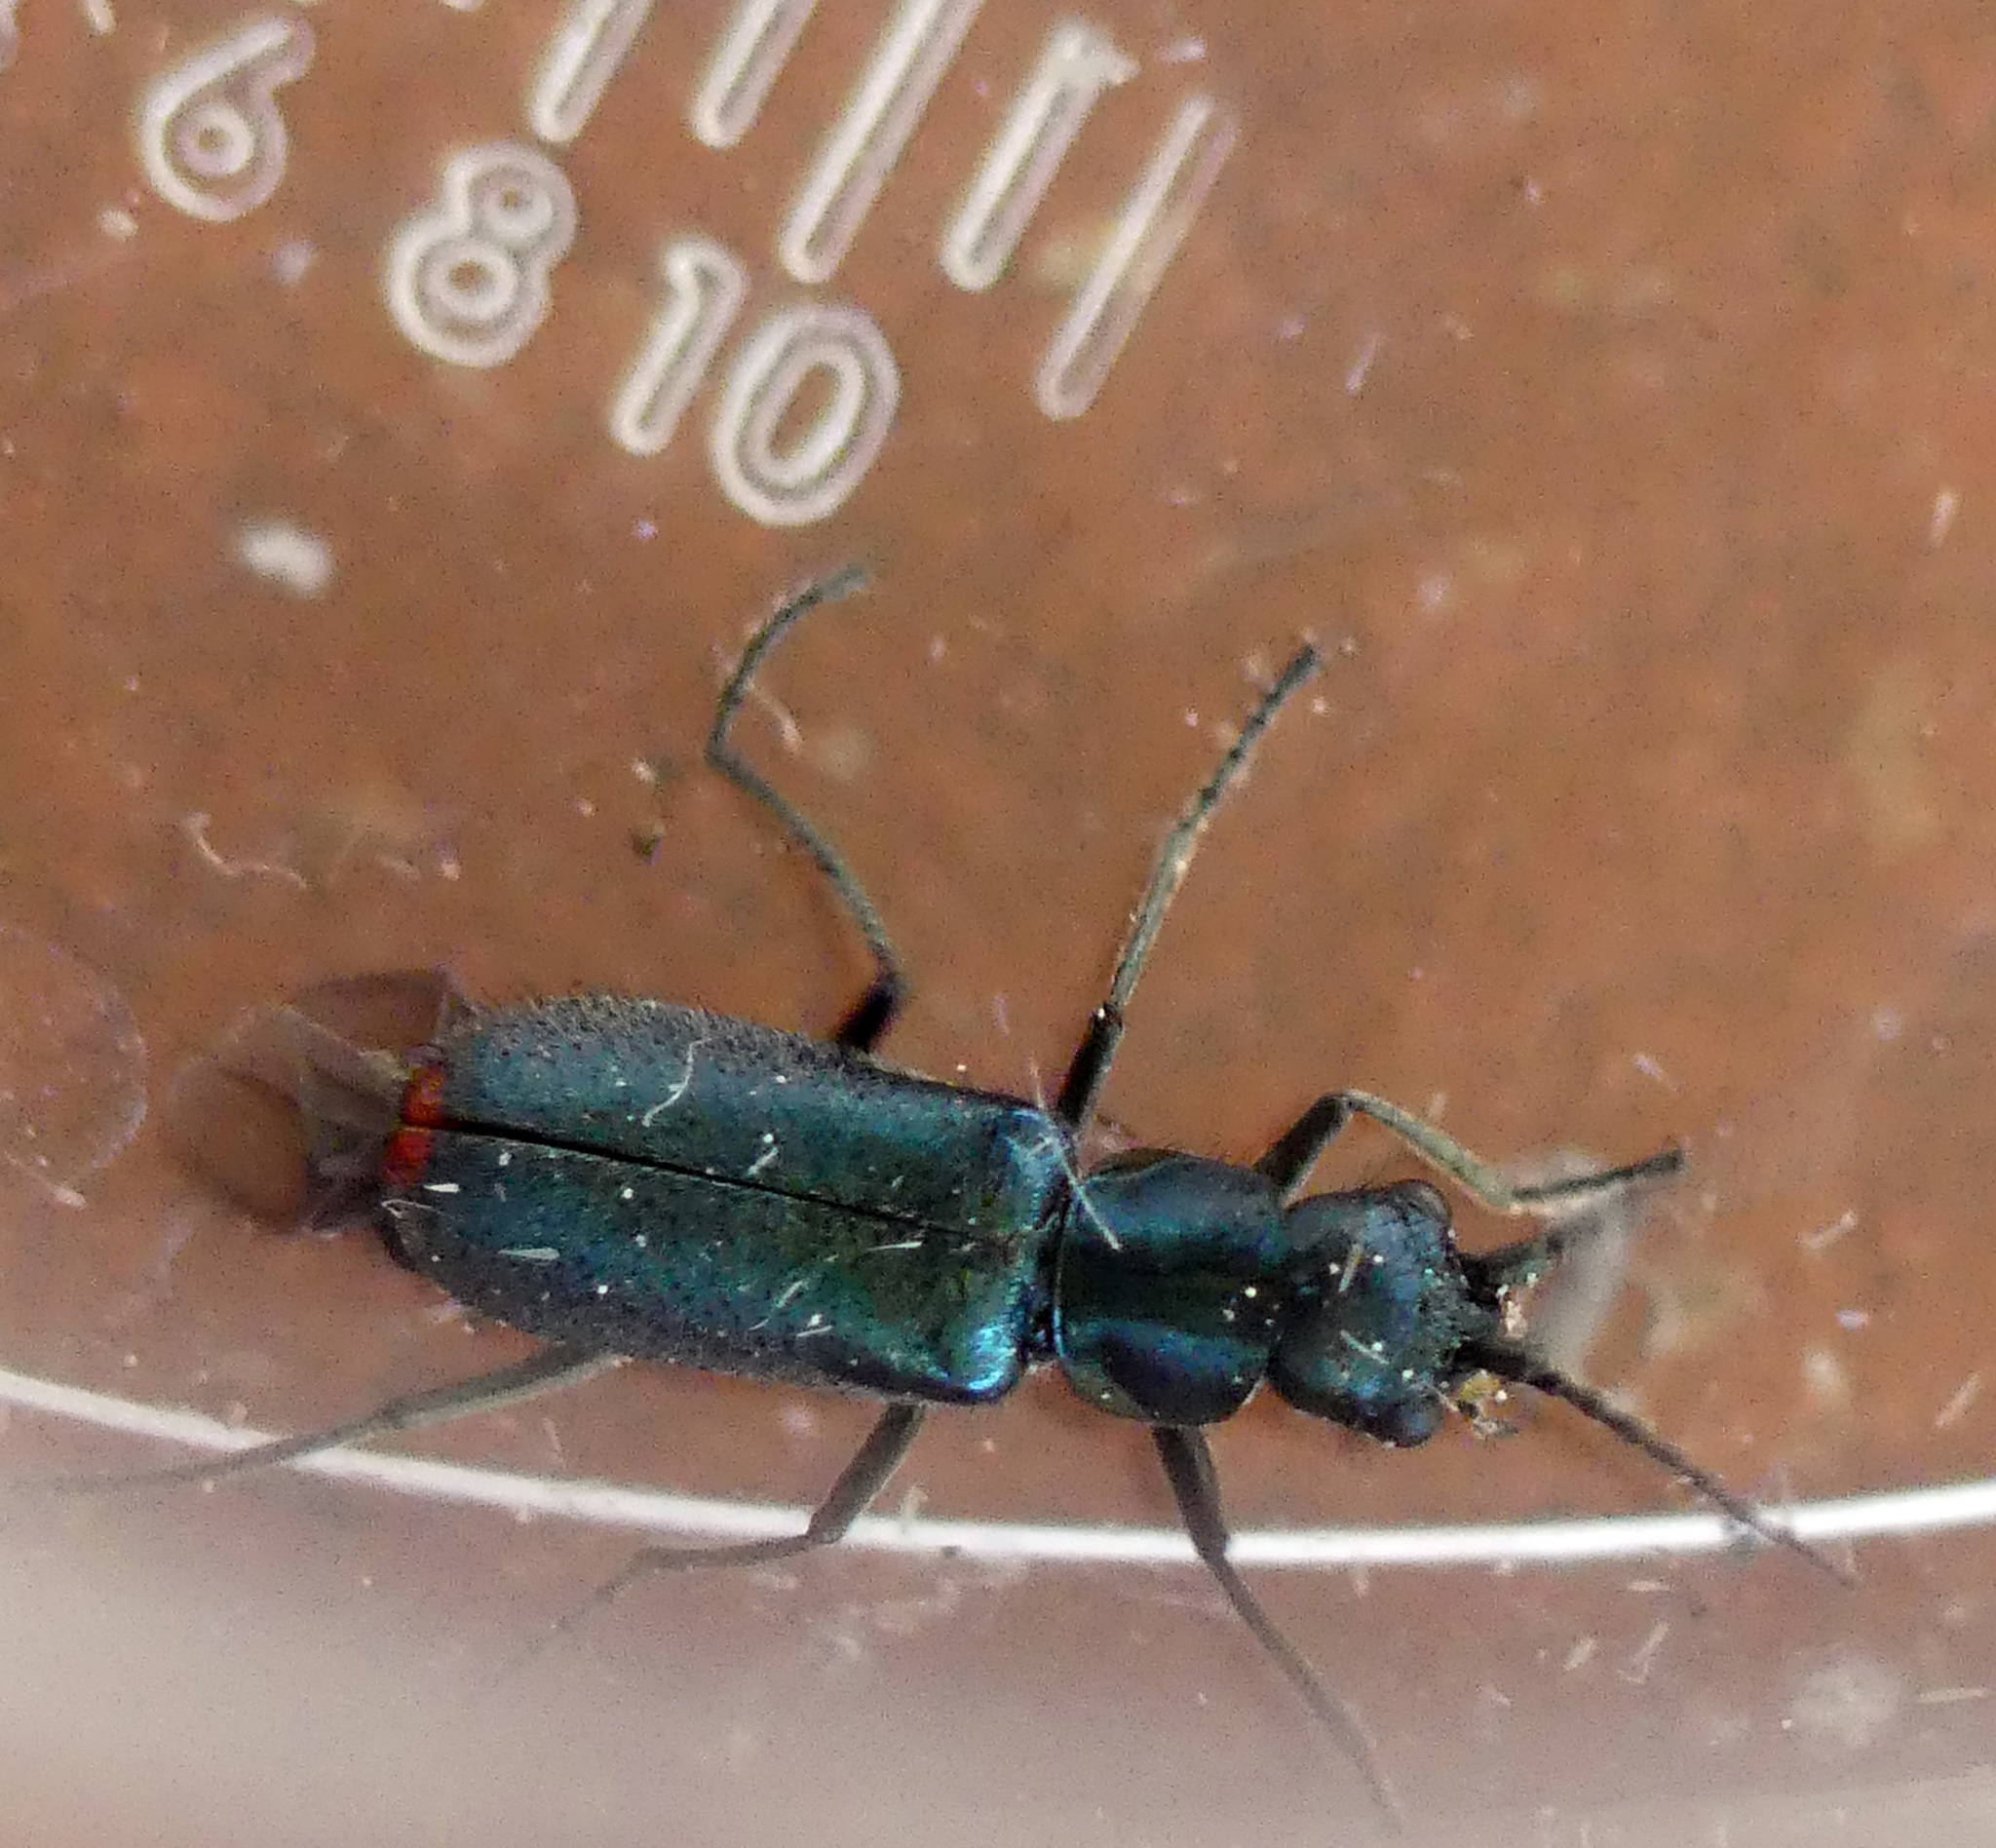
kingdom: Animalia
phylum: Arthropoda
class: Insecta
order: Coleoptera
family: Malachiidae
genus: Cordylepherus
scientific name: Cordylepherus viridis
